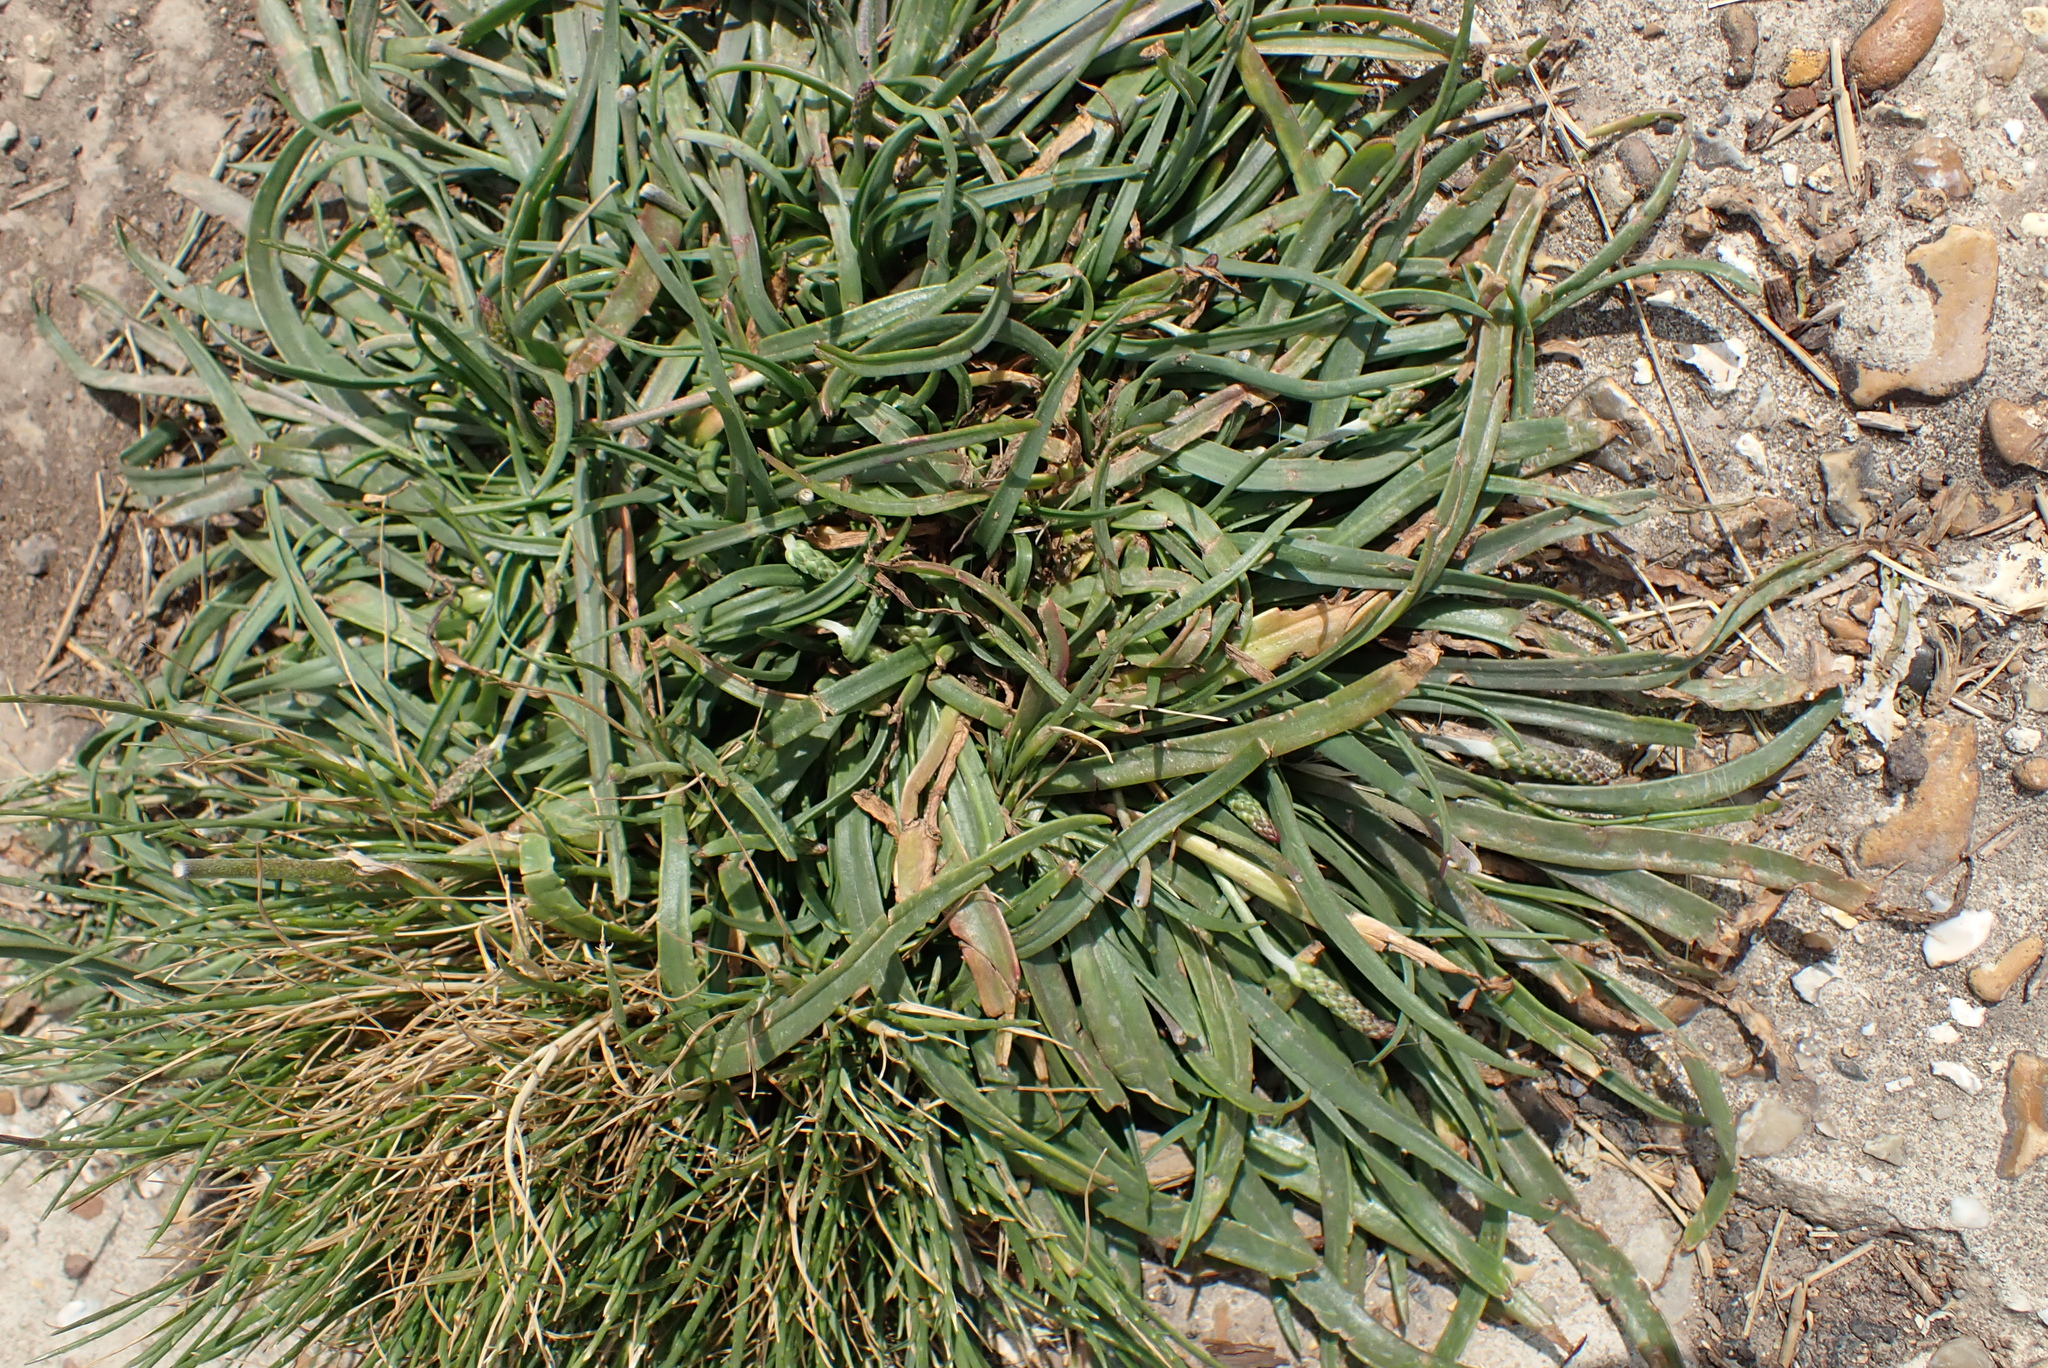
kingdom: Plantae
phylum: Tracheophyta
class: Magnoliopsida
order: Lamiales
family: Plantaginaceae
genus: Plantago
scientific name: Plantago maritima
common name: Sea plantain
